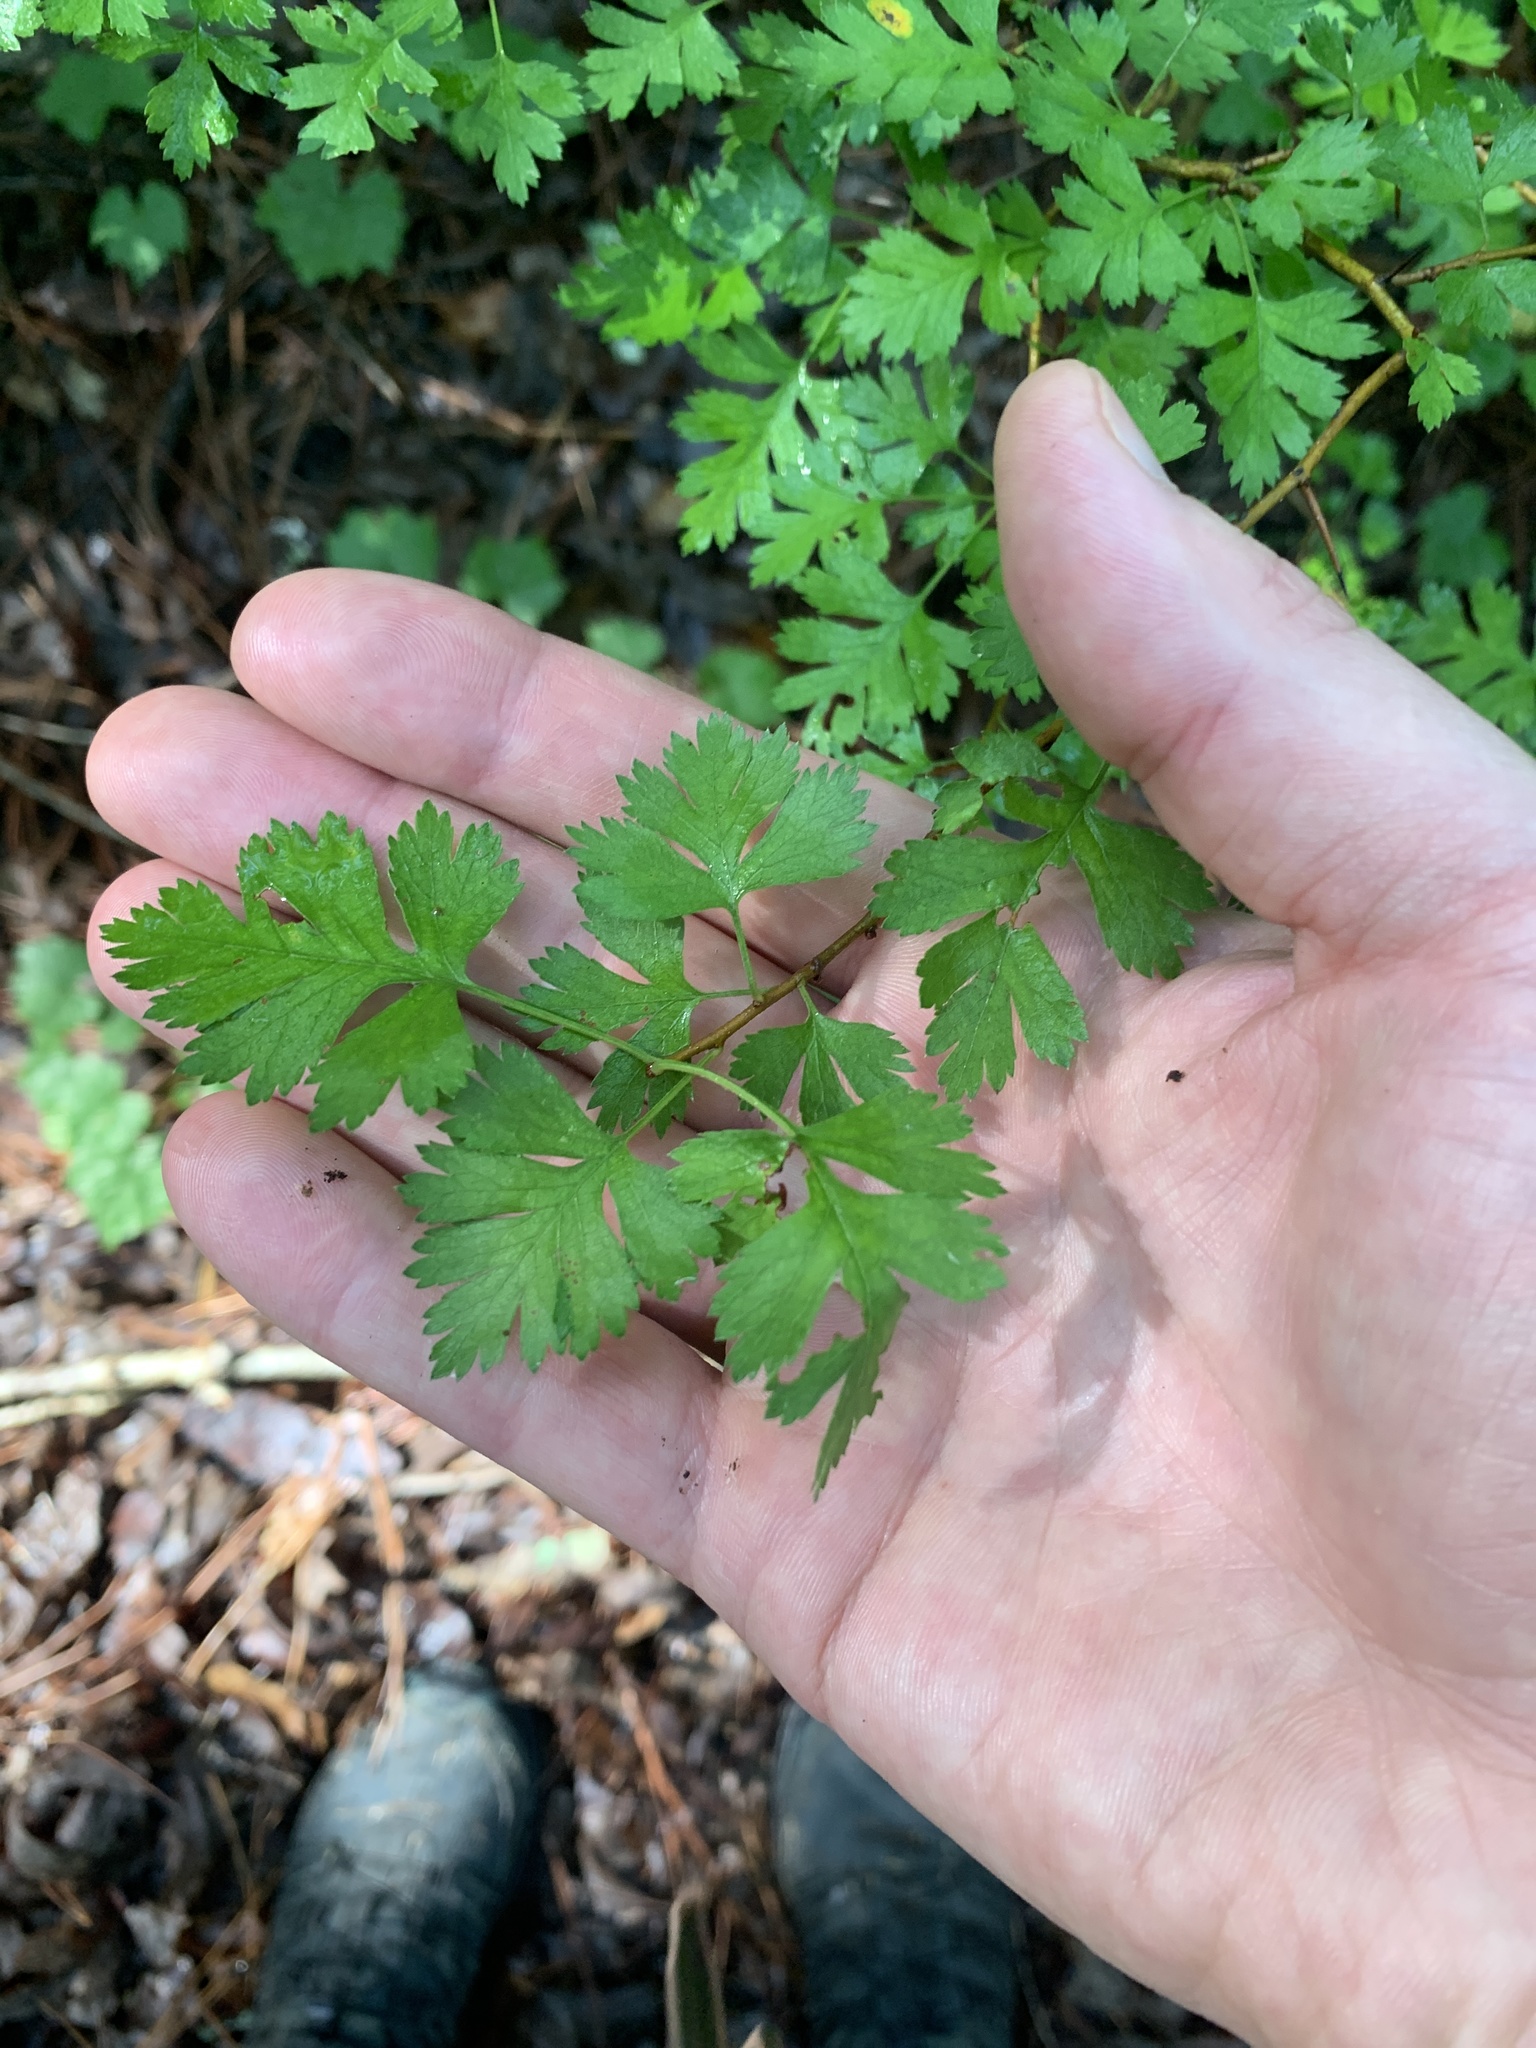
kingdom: Plantae
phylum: Tracheophyta
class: Magnoliopsida
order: Rosales
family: Rosaceae
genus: Crataegus
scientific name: Crataegus marshallii
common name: Parsley-hawthorn
